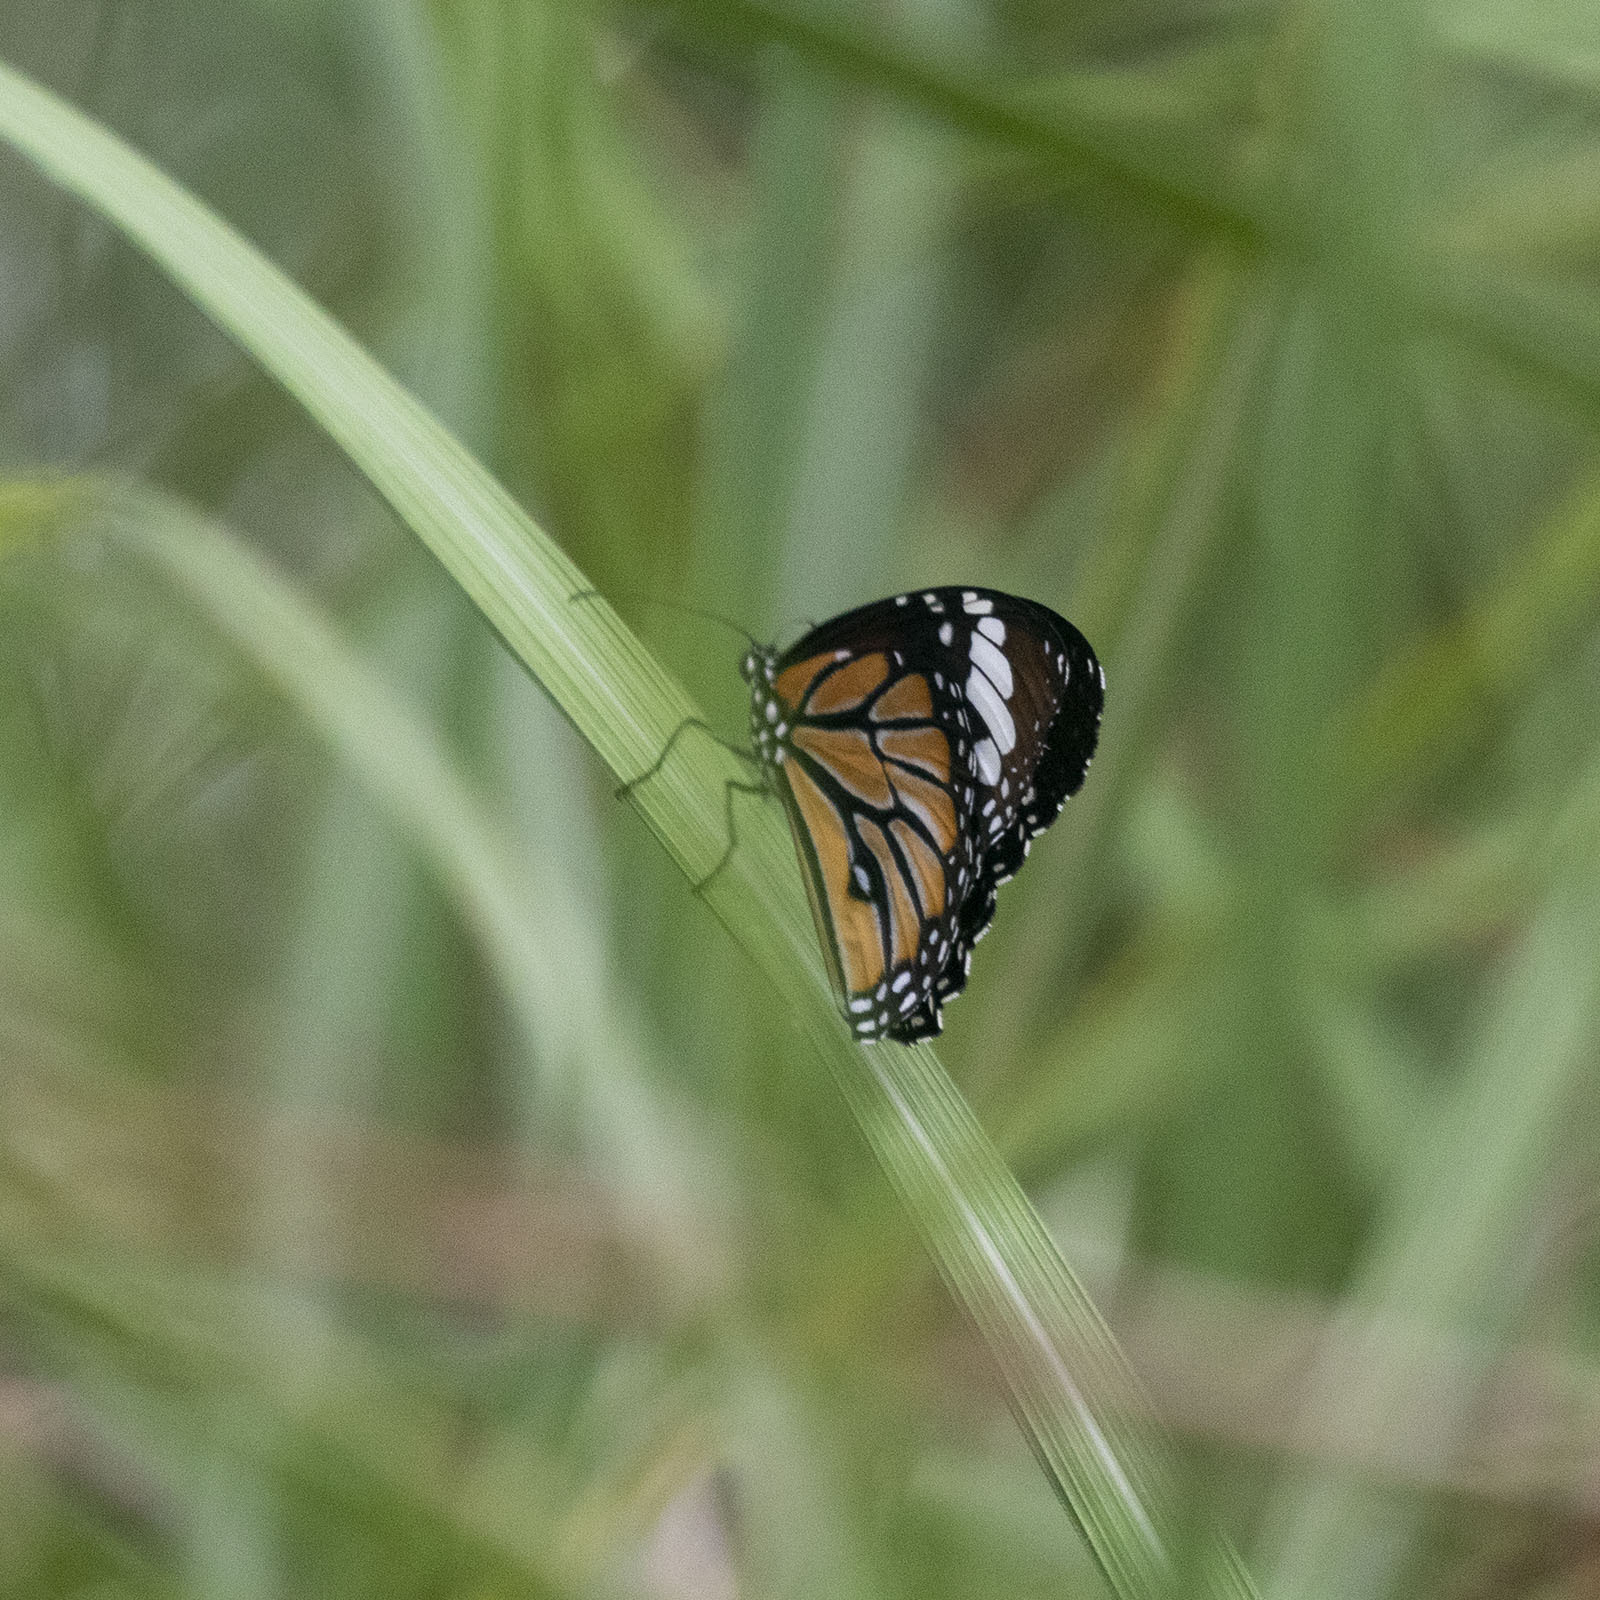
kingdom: Animalia
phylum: Arthropoda
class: Insecta
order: Lepidoptera
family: Nymphalidae
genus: Danaus
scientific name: Danaus genutia
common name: Common tiger butterfly
